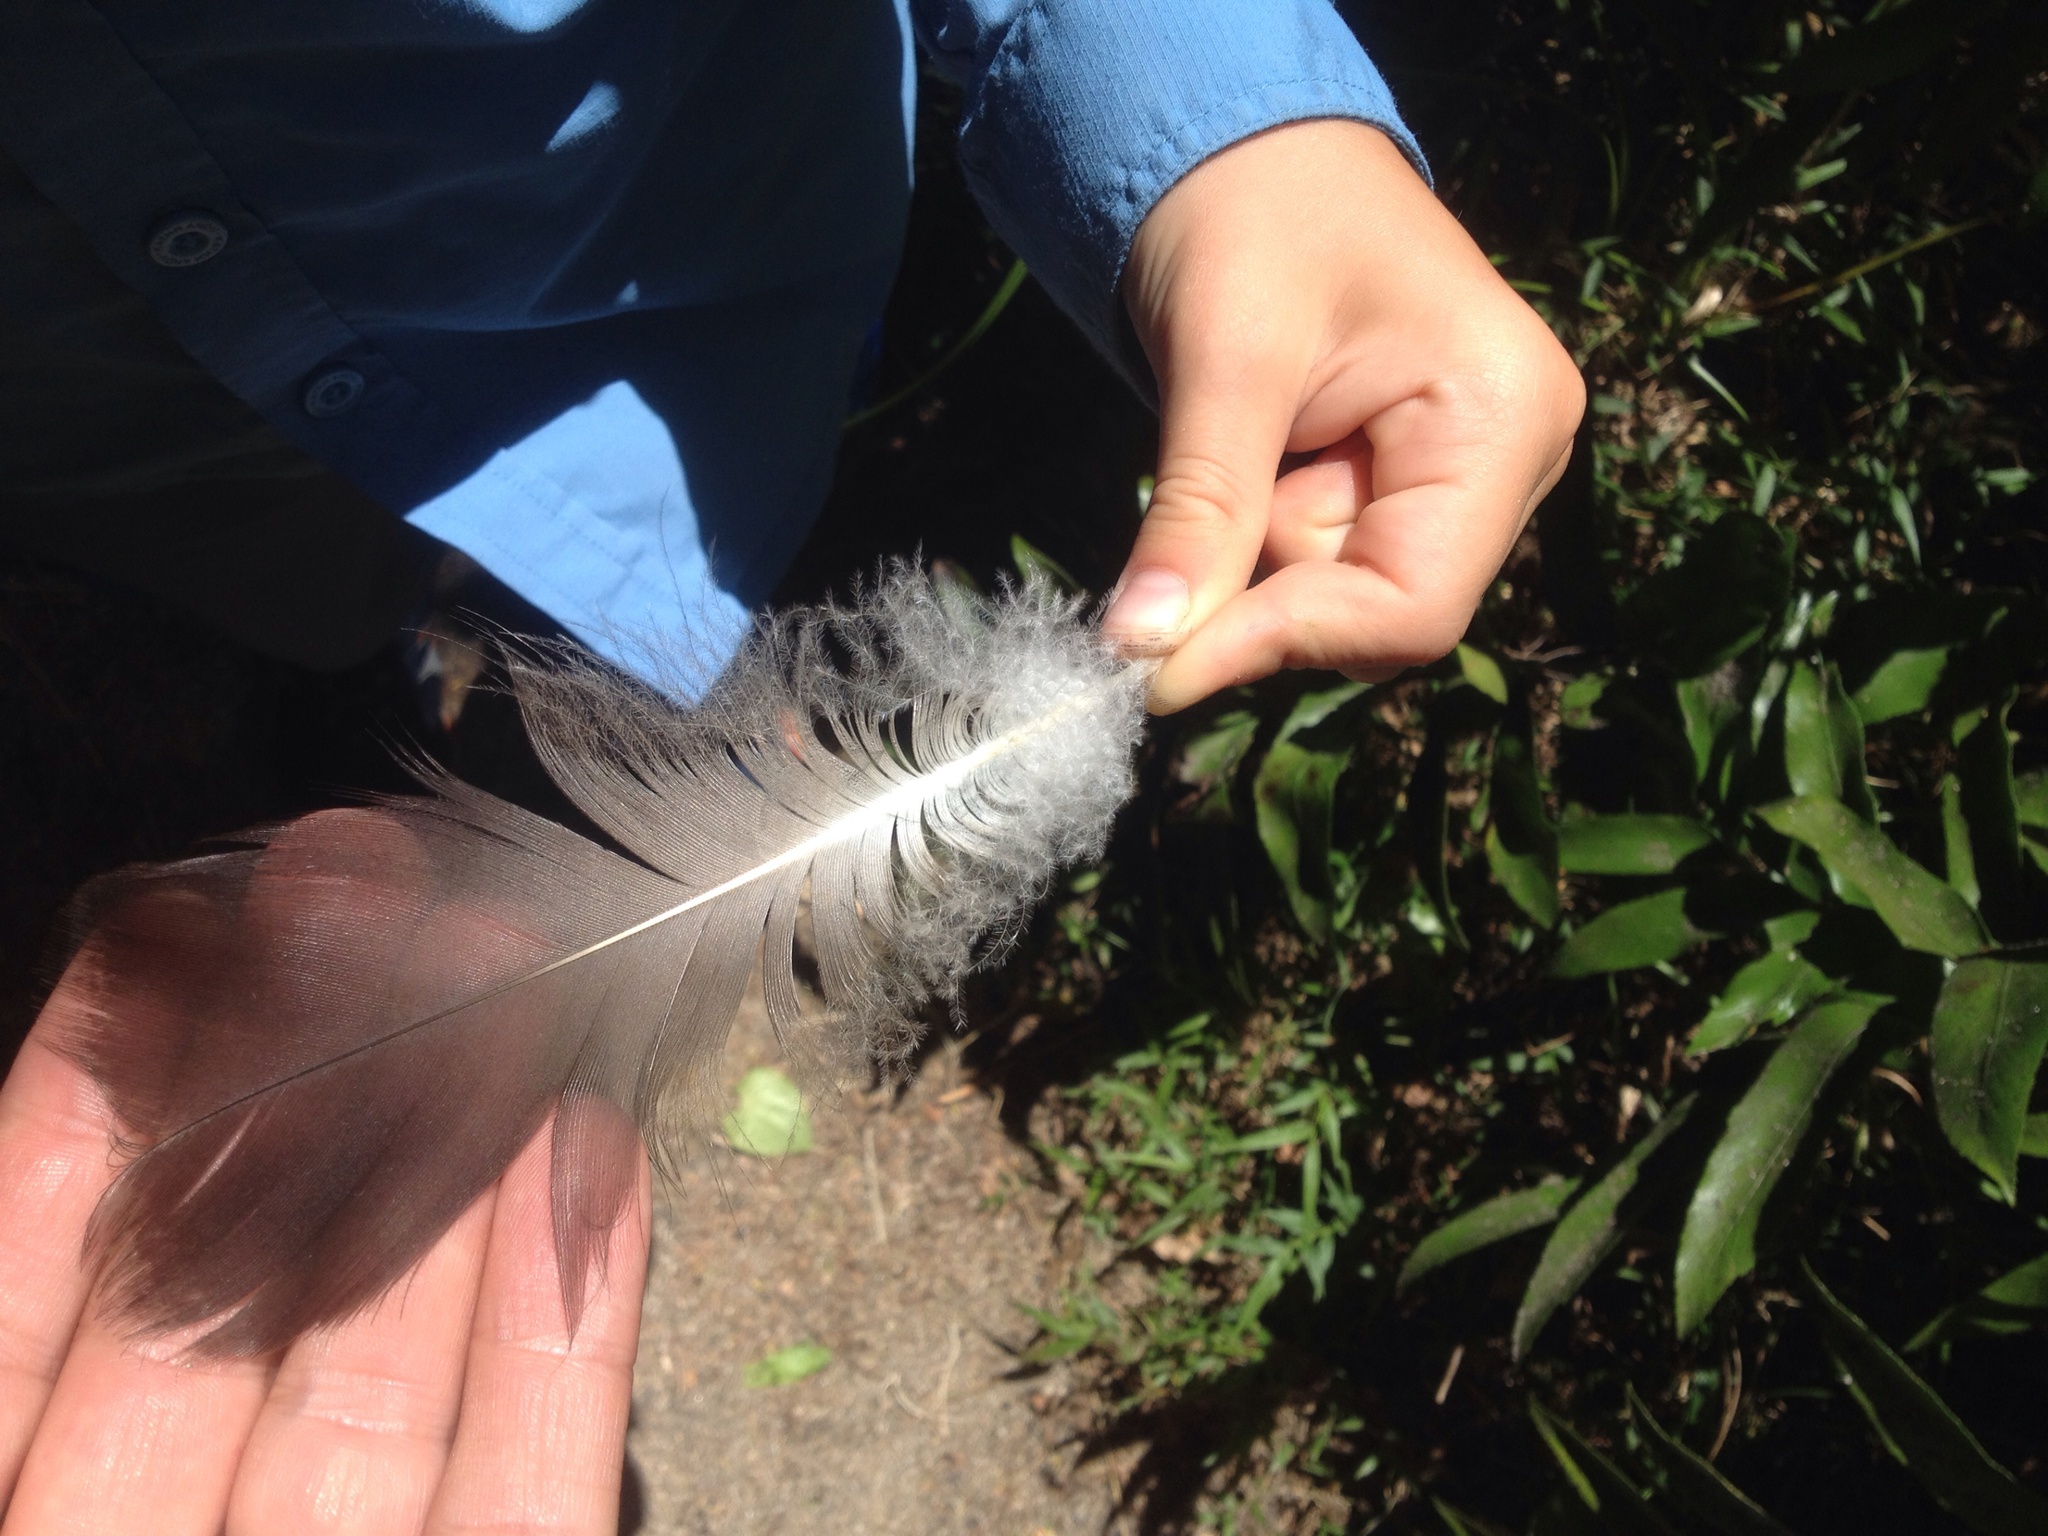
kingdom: Animalia
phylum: Chordata
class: Aves
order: Anseriformes
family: Anatidae
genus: Branta
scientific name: Branta canadensis
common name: Canada goose
